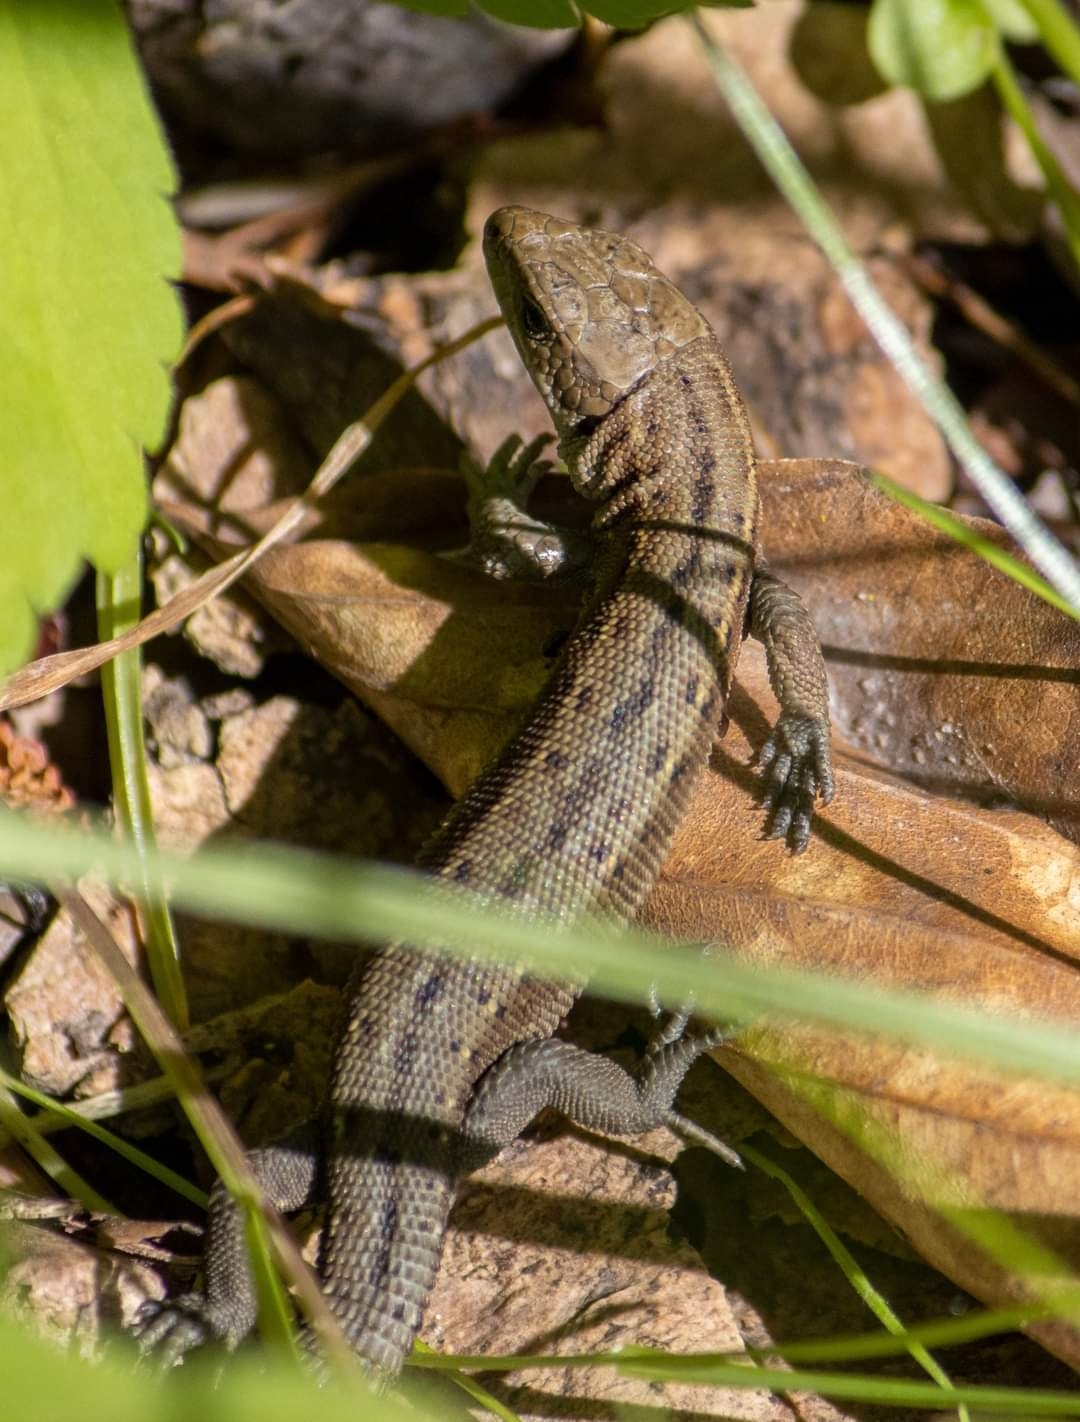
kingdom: Animalia
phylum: Chordata
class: Squamata
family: Lacertidae
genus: Zootoca
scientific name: Zootoca vivipara
